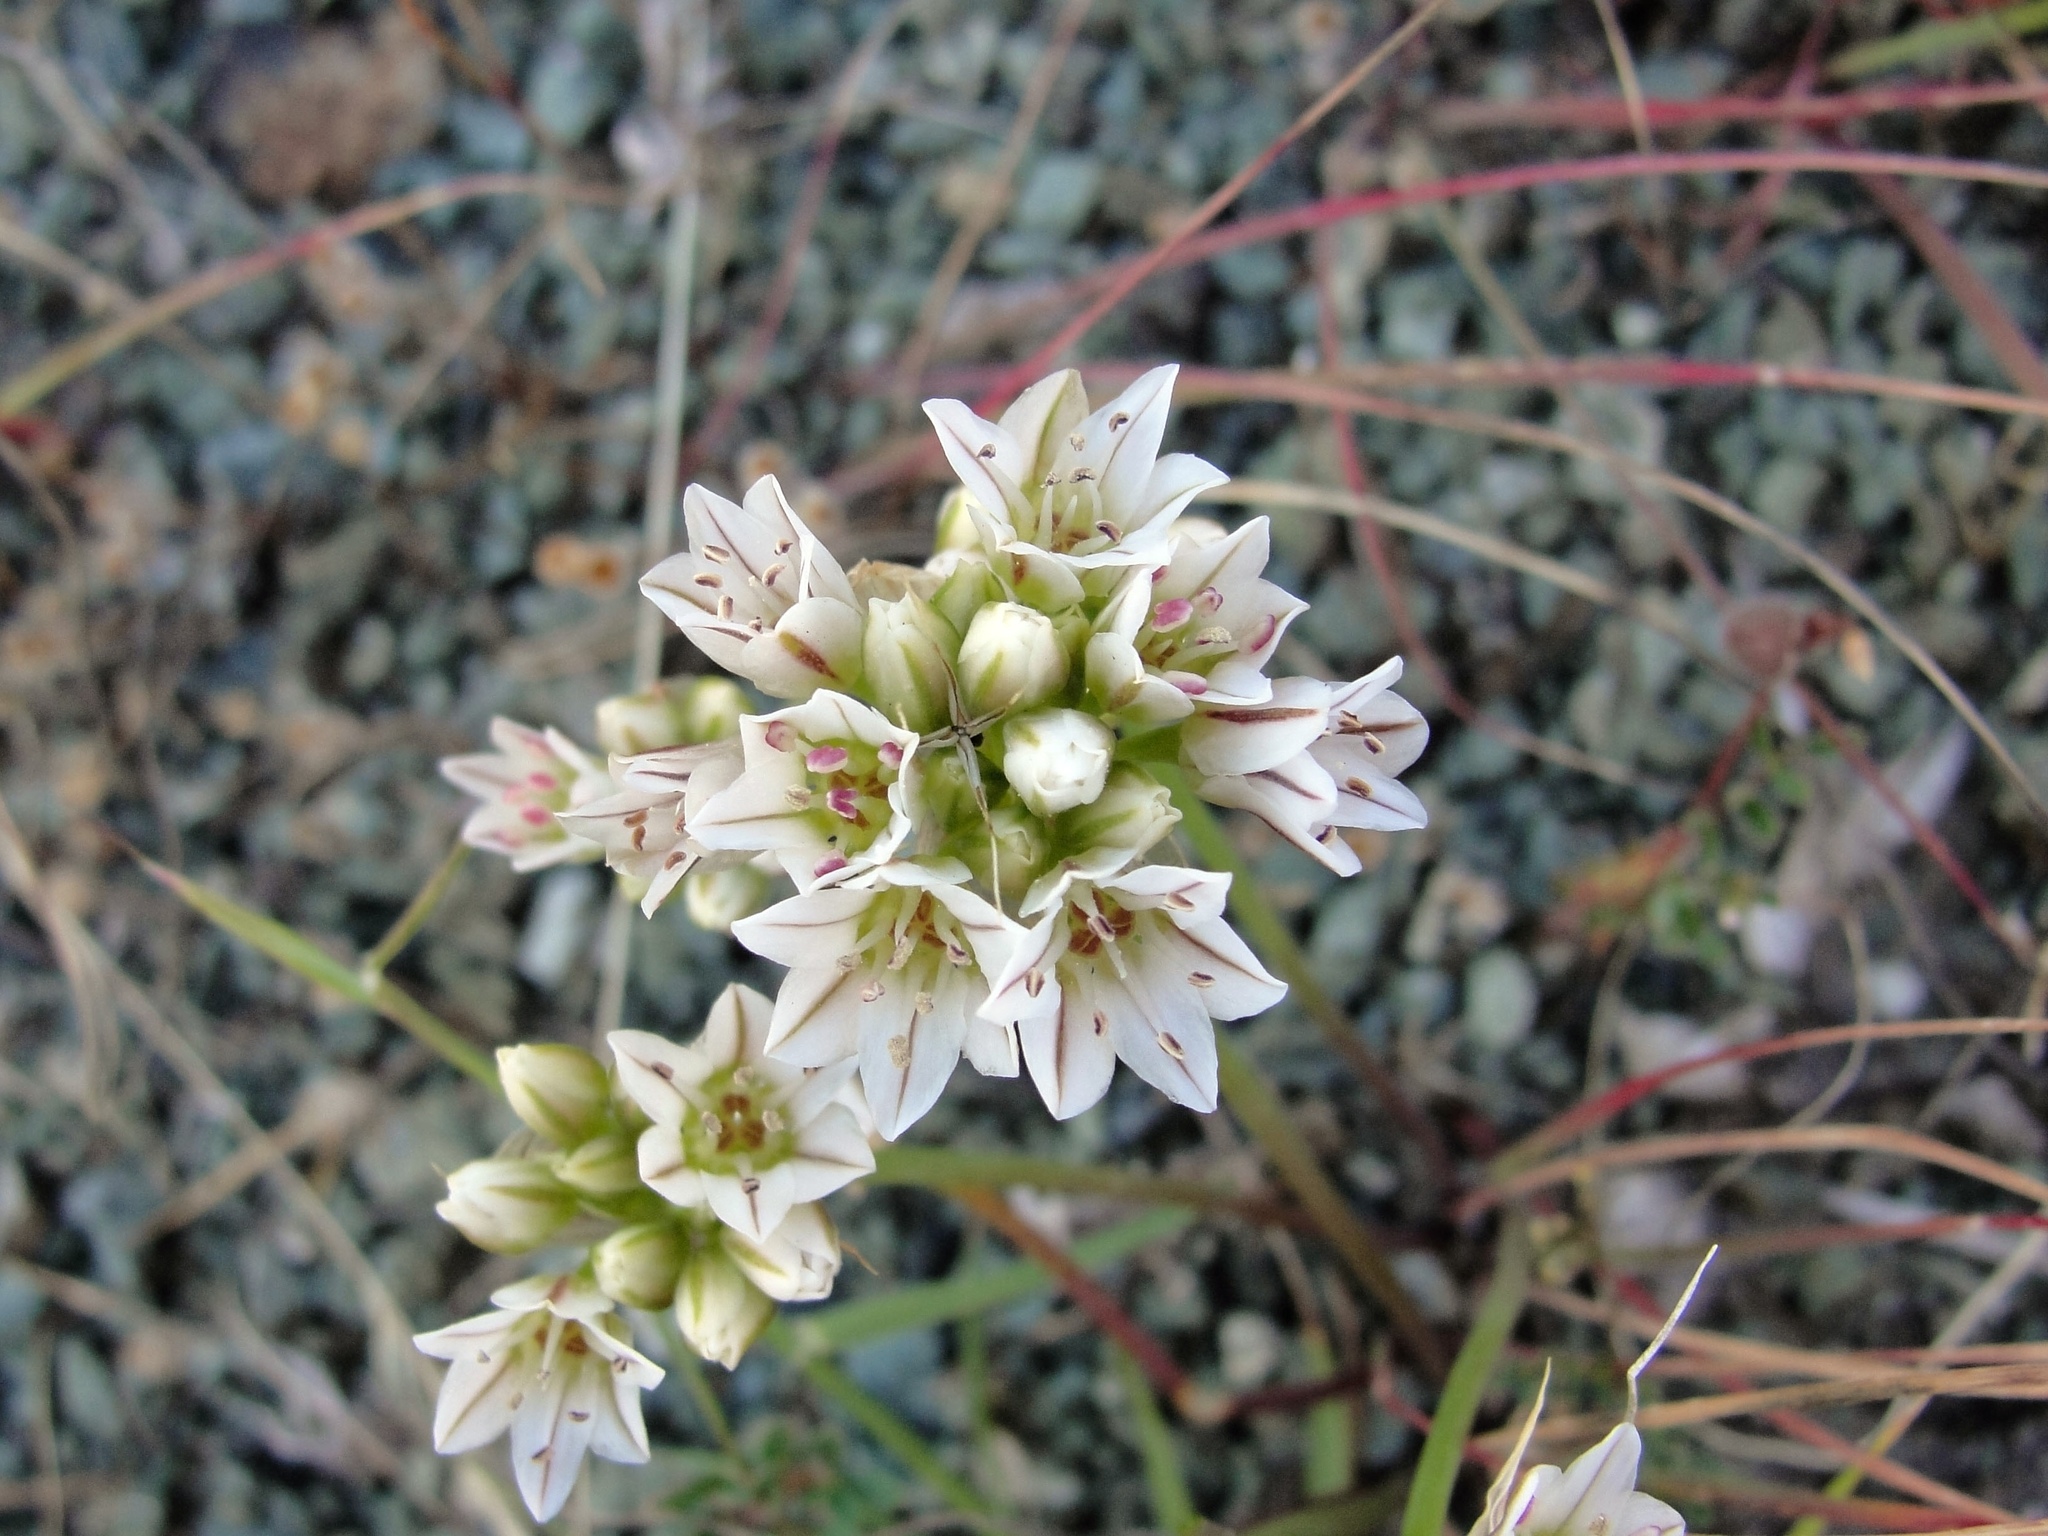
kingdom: Plantae
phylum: Tracheophyta
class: Liliopsida
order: Asparagales
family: Amaryllidaceae
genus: Allium
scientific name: Allium lacunosum
